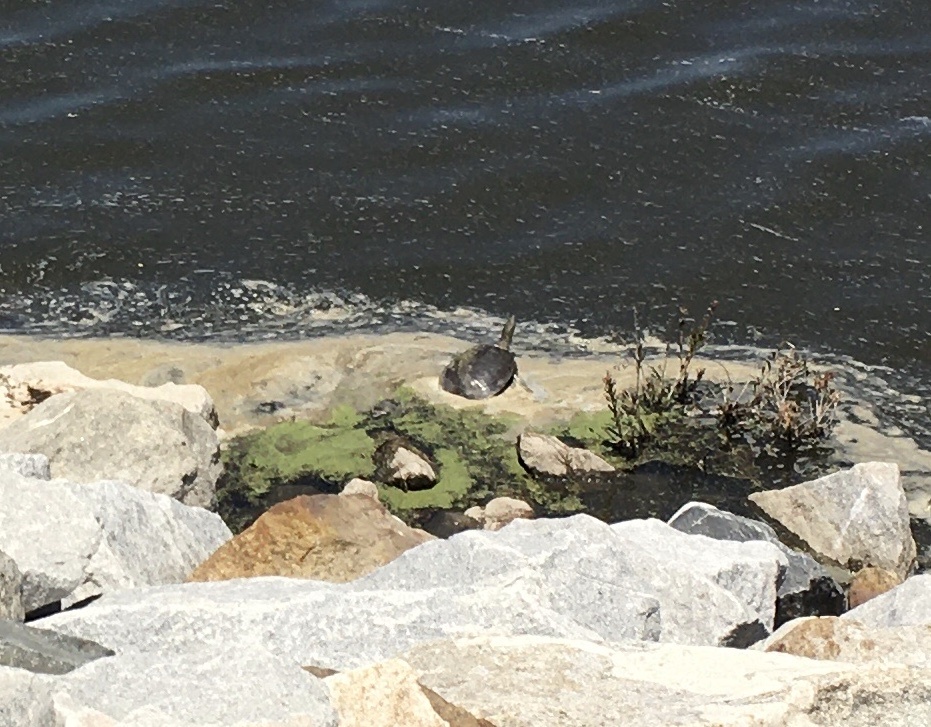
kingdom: Animalia
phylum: Chordata
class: Testudines
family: Trionychidae
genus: Apalone
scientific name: Apalone spinifera
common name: Spiny softshell turtle
